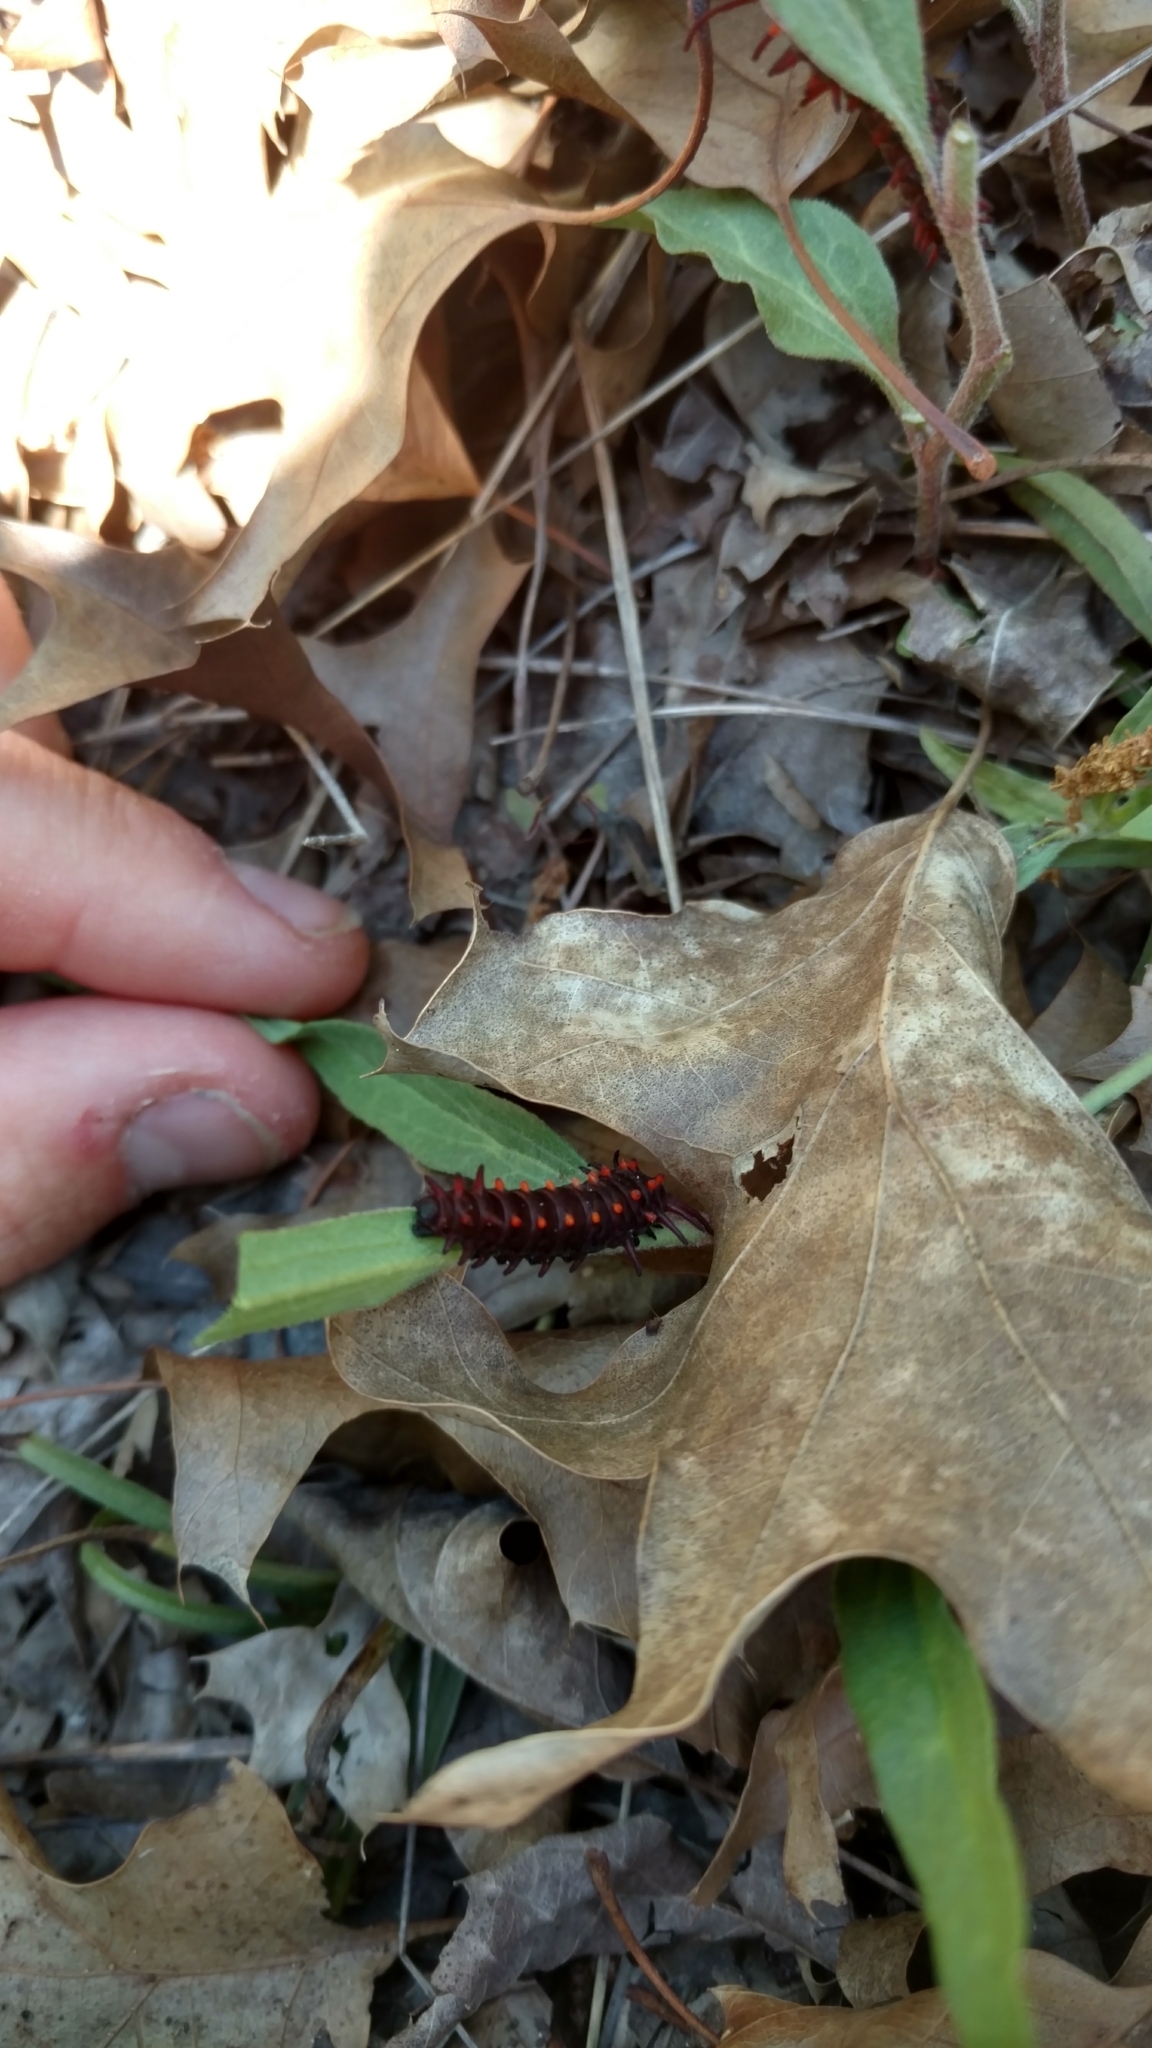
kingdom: Animalia
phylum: Arthropoda
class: Insecta
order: Lepidoptera
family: Papilionidae
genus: Battus
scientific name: Battus philenor
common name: Pipevine swallowtail
